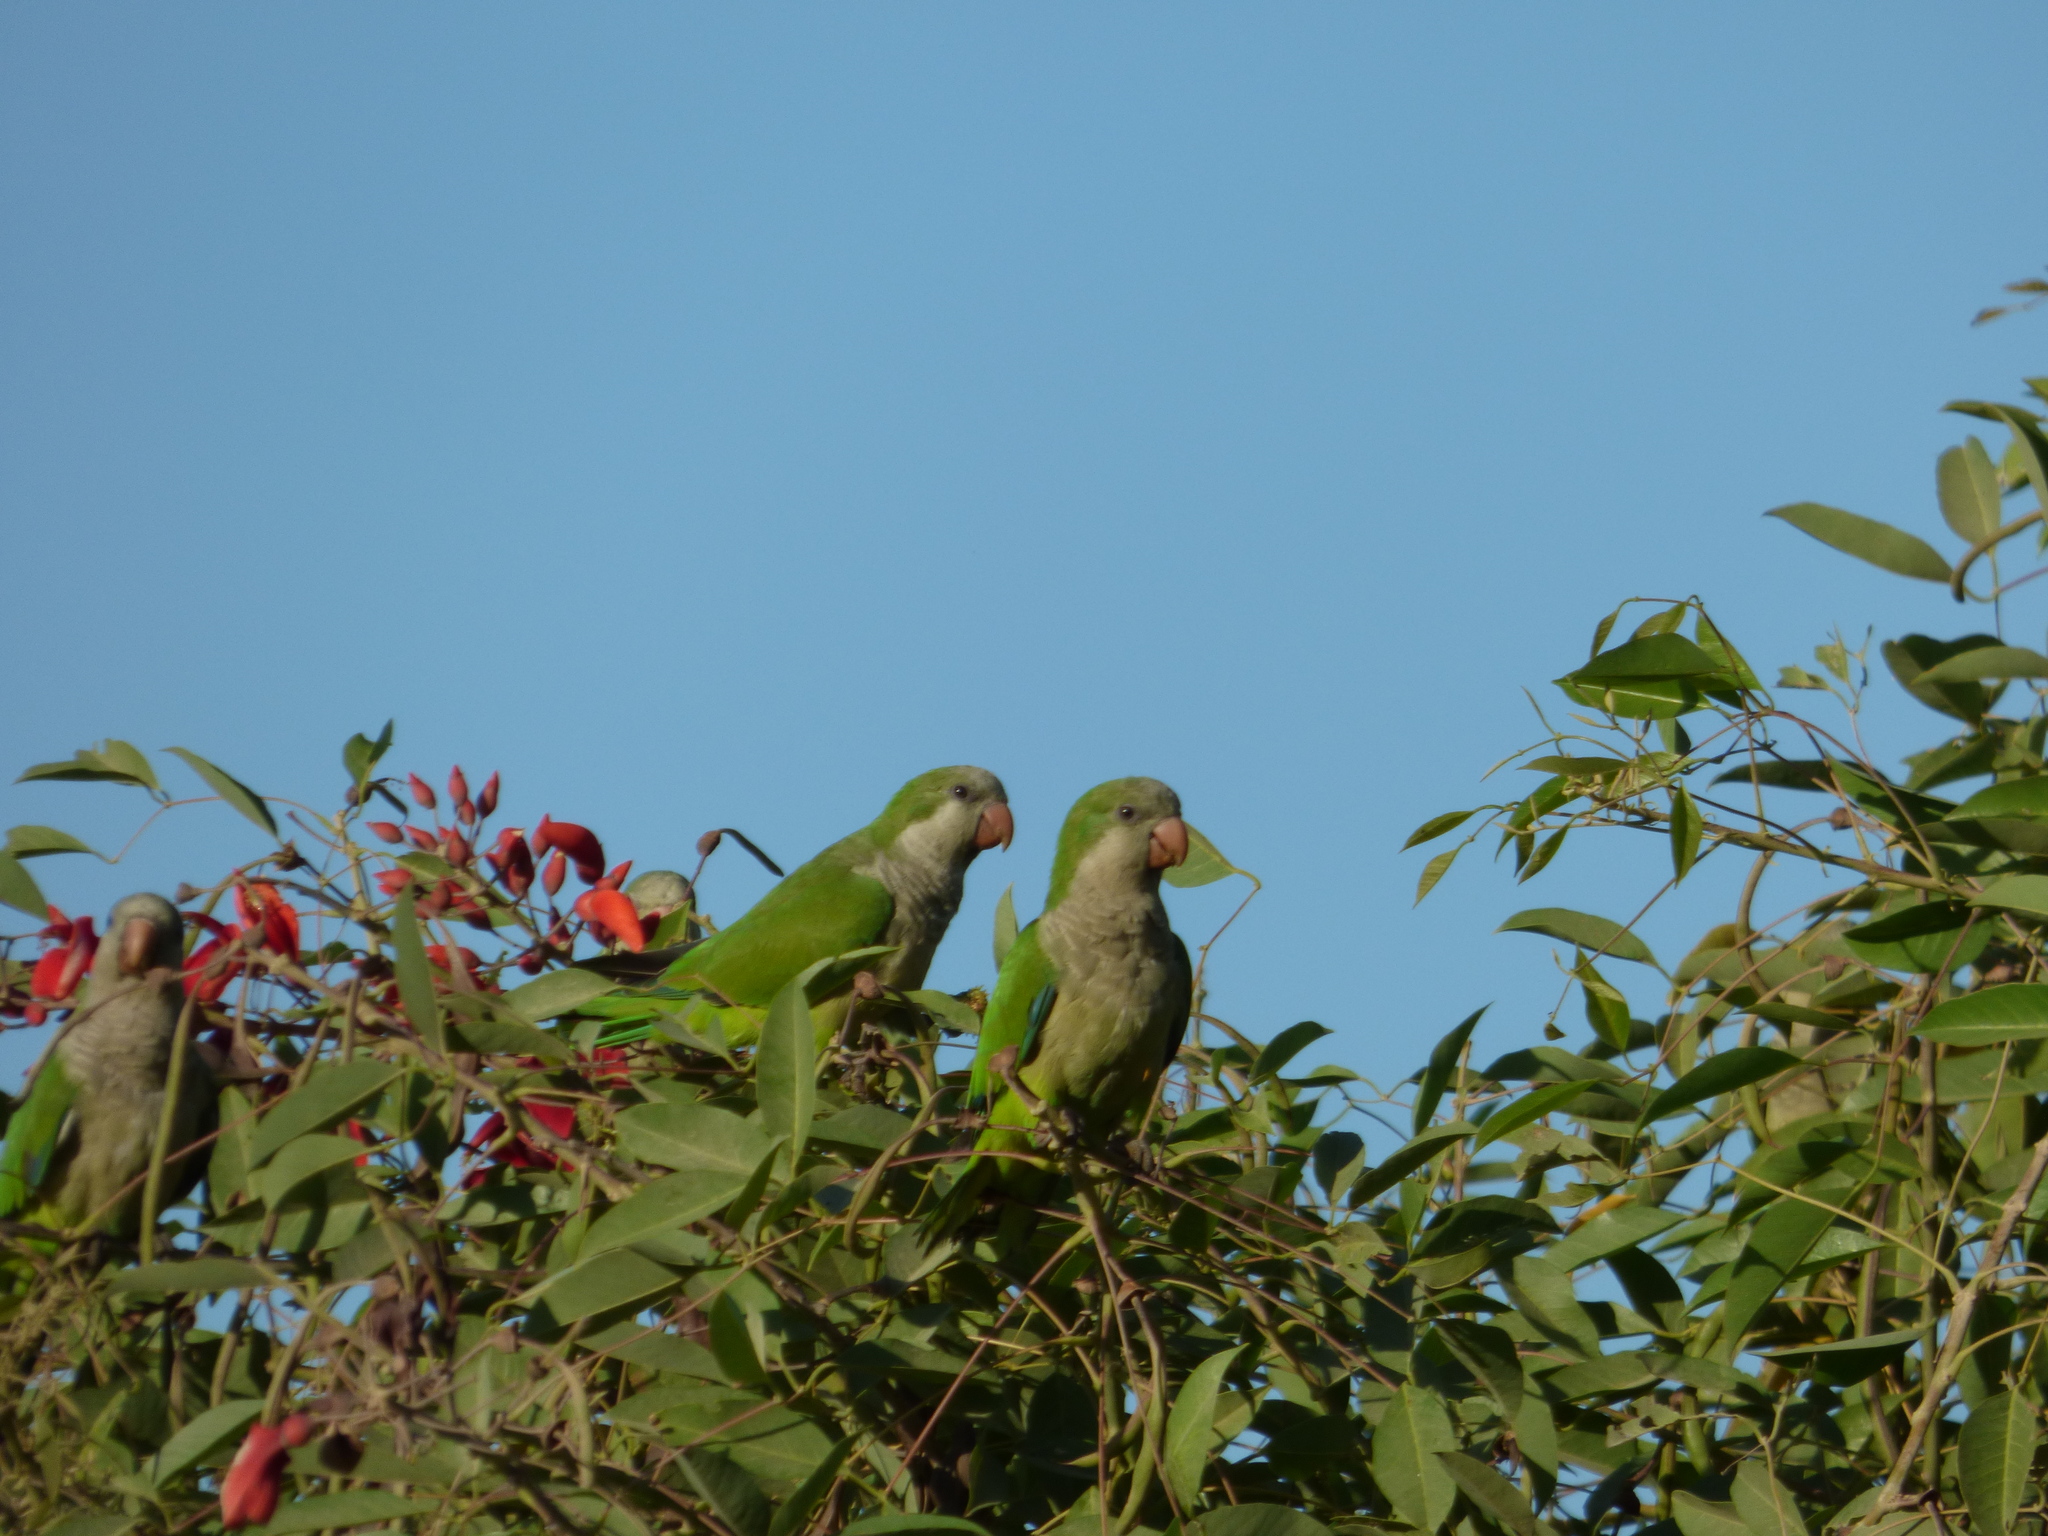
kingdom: Animalia
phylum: Chordata
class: Aves
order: Psittaciformes
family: Psittacidae
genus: Myiopsitta
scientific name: Myiopsitta monachus
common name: Monk parakeet
